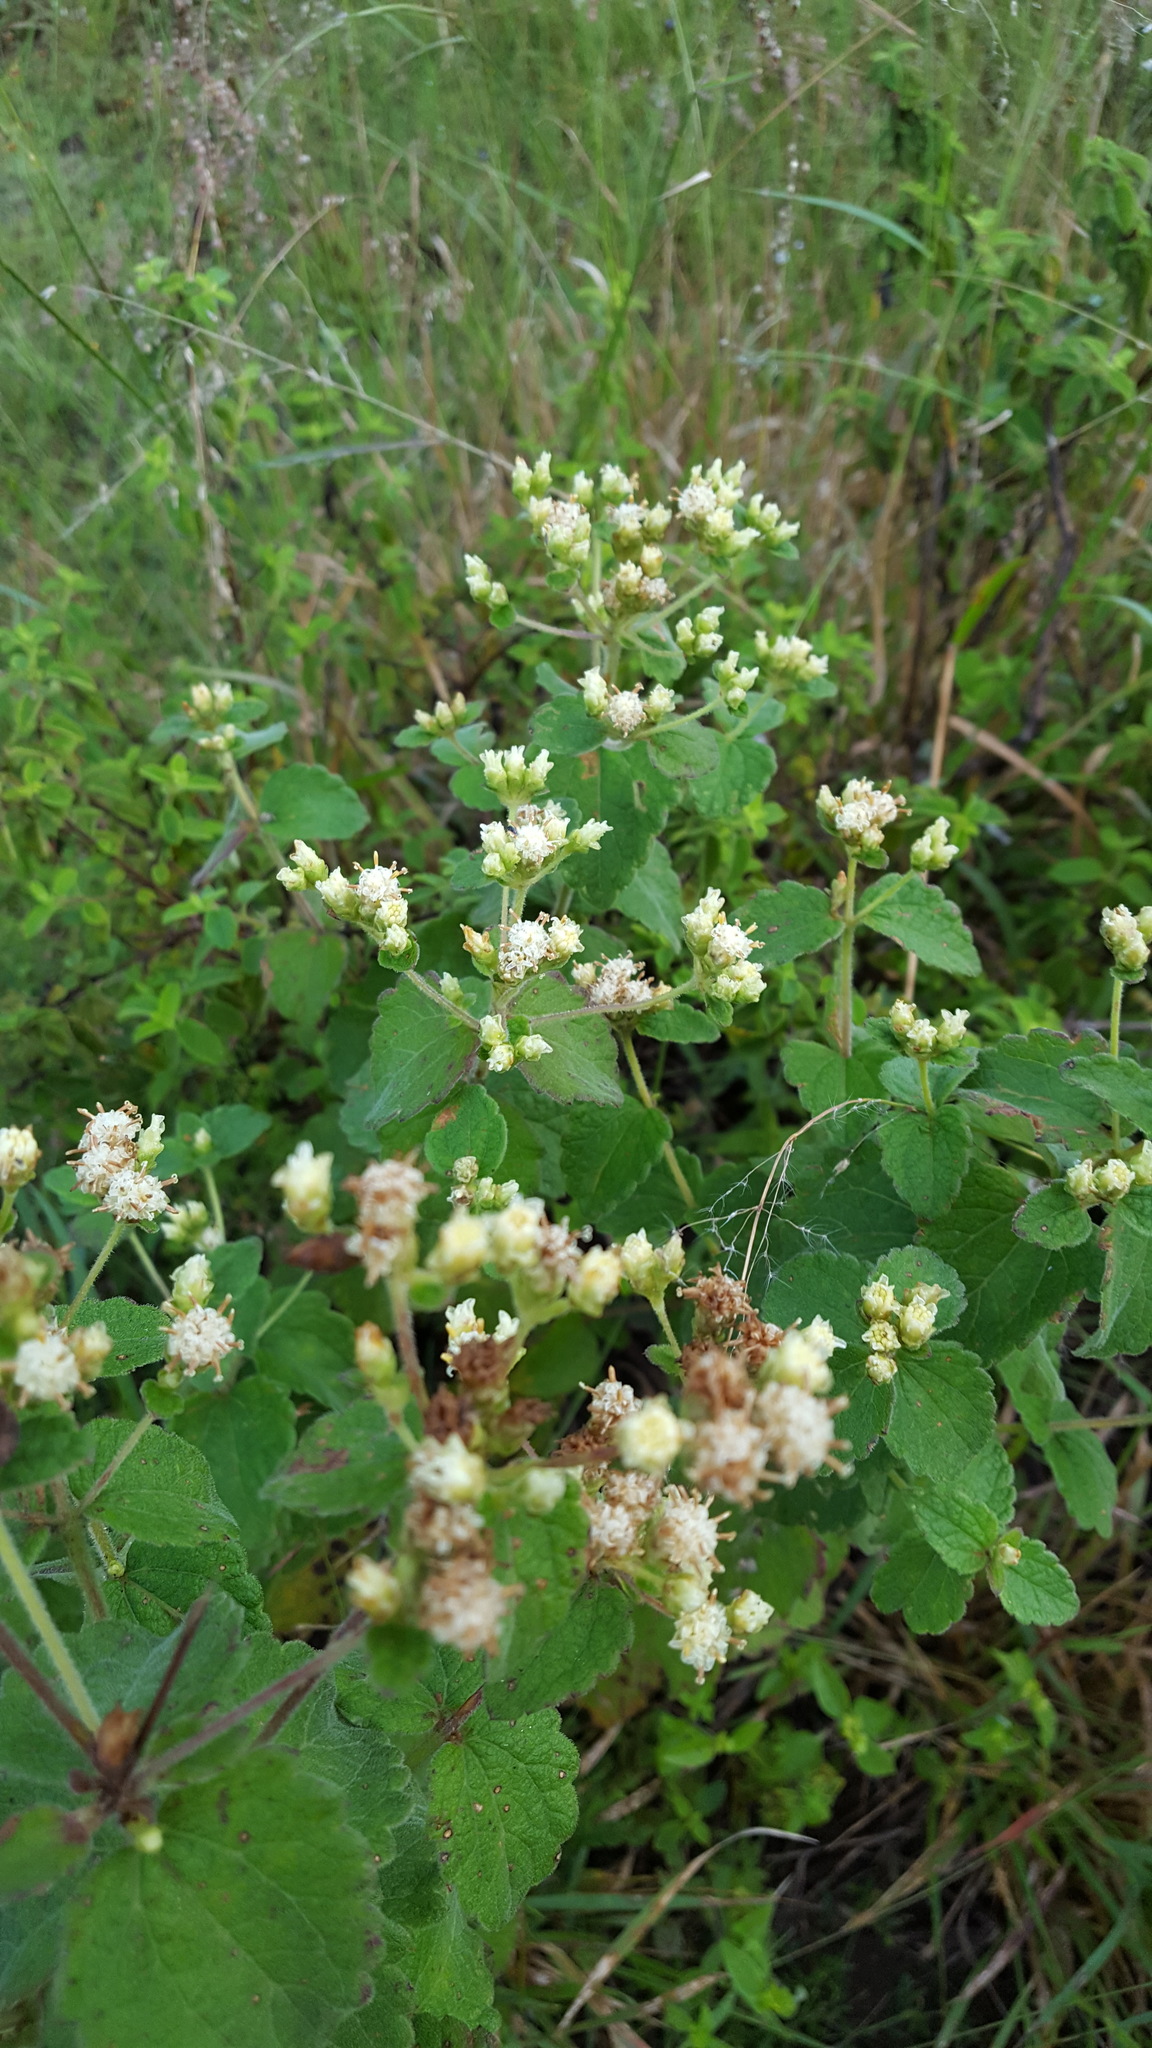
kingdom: Plantae
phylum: Tracheophyta
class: Magnoliopsida
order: Asterales
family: Asteraceae
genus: Calea
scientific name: Calea ternifolia
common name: Mexican calea
